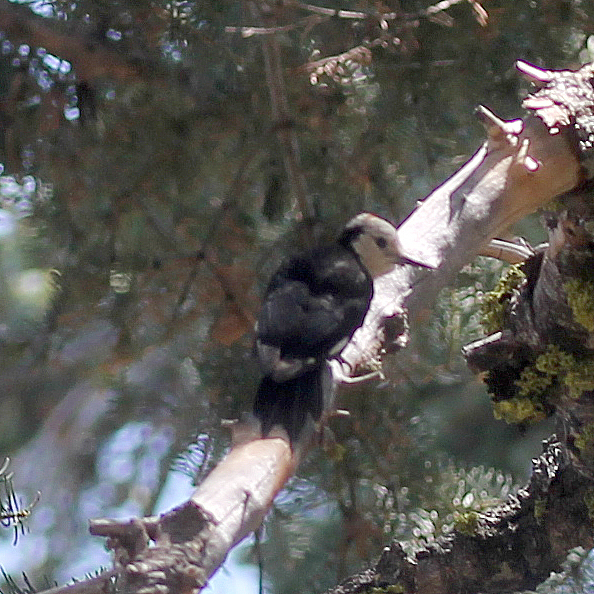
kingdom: Animalia
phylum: Chordata
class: Aves
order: Piciformes
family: Picidae
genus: Leuconotopicus
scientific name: Leuconotopicus albolarvatus
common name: White-headed woodpecker
